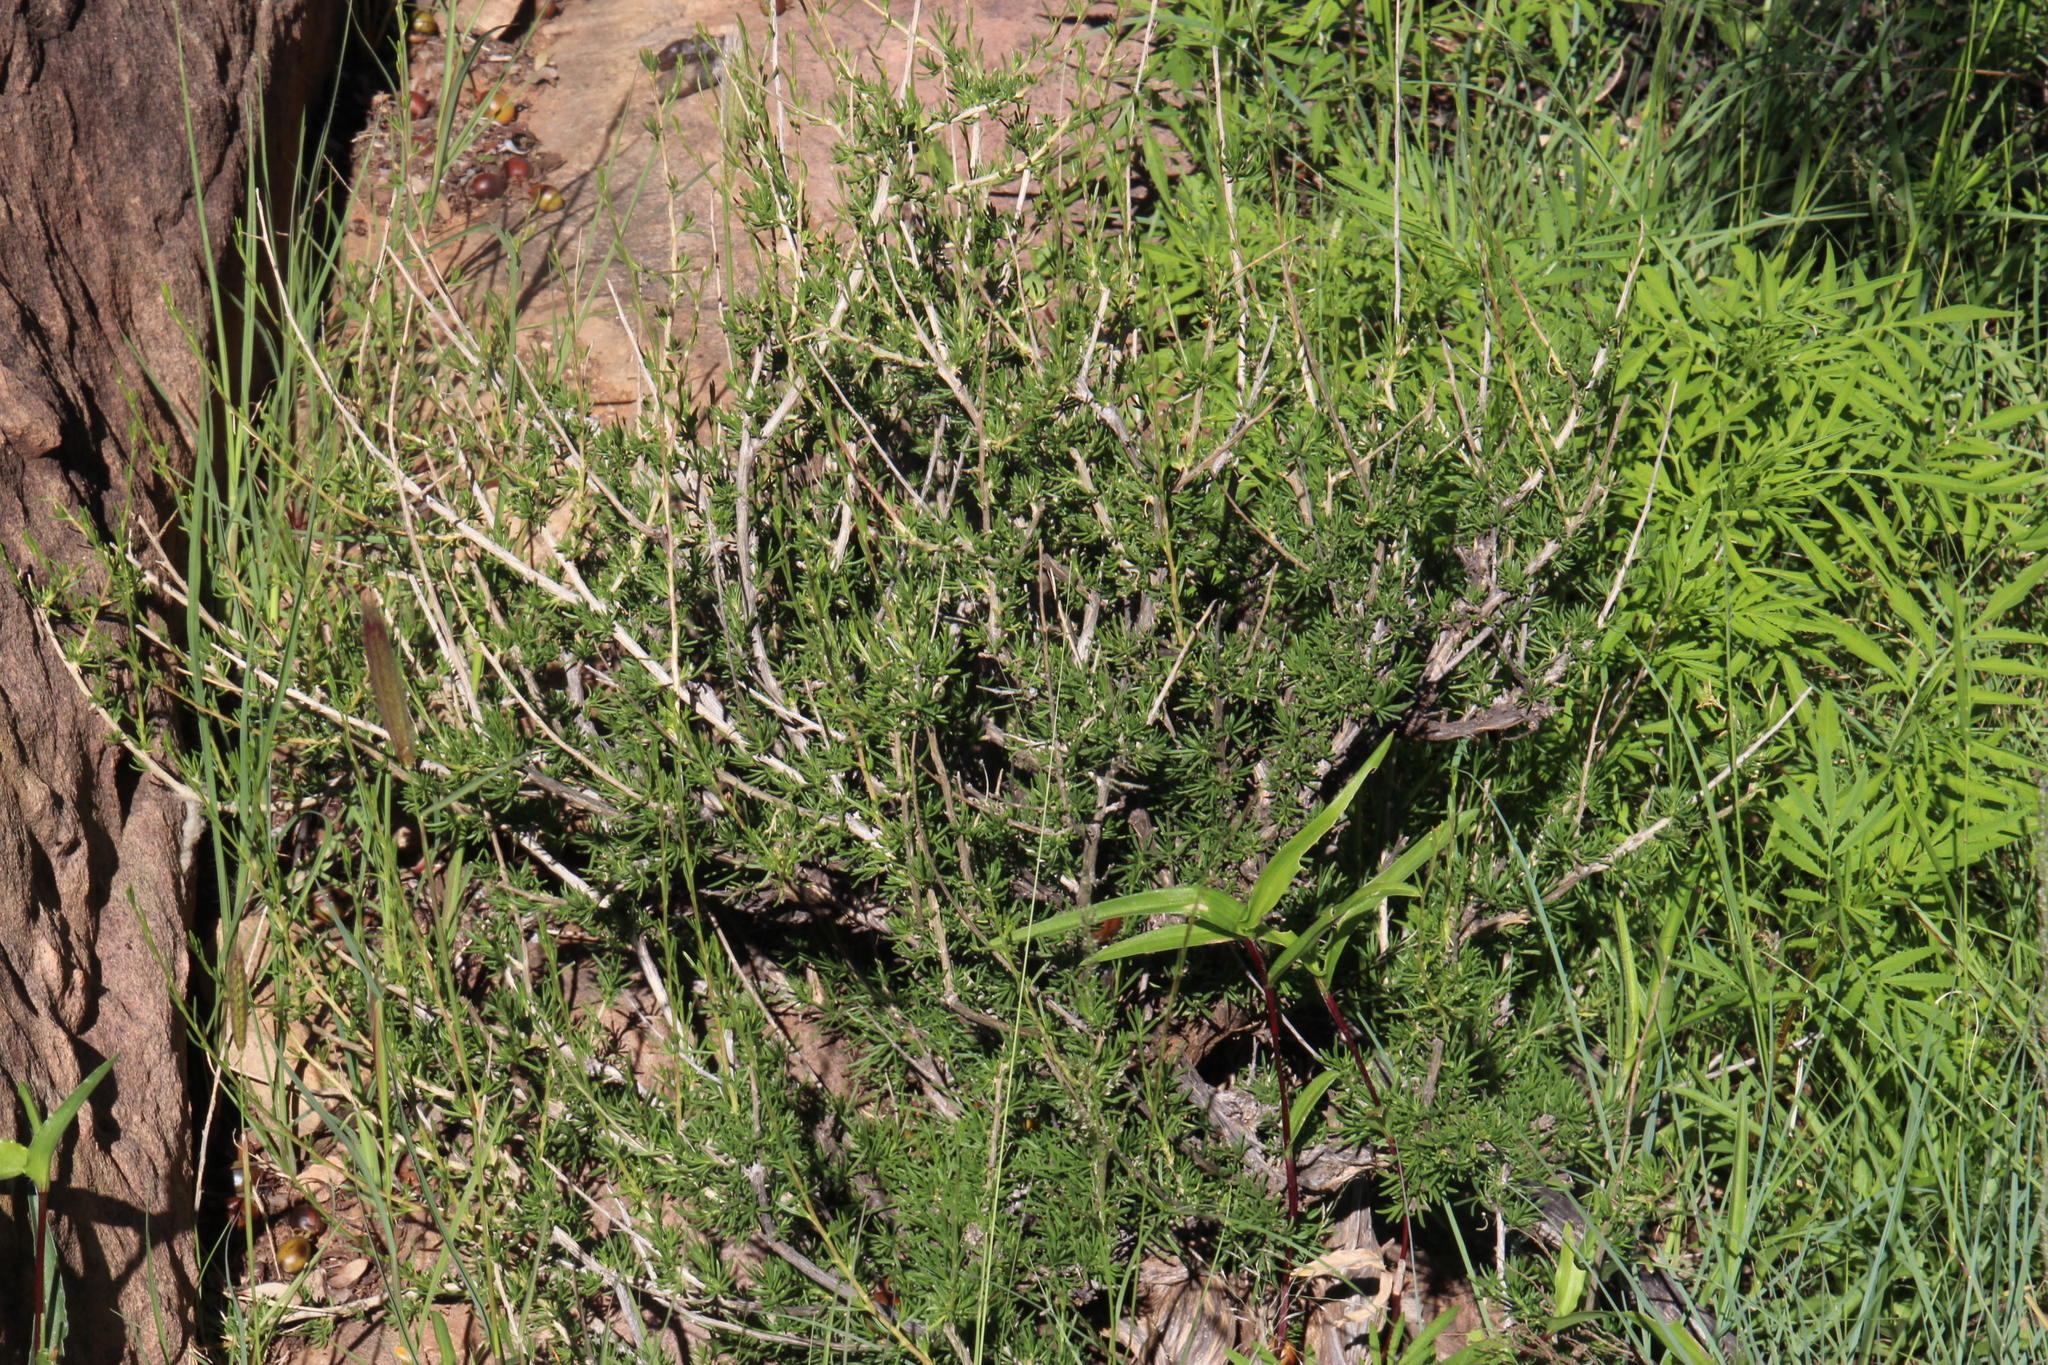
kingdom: Plantae
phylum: Tracheophyta
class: Magnoliopsida
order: Malvales
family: Malvaceae
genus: Hermannia
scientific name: Hermannia filifolia
